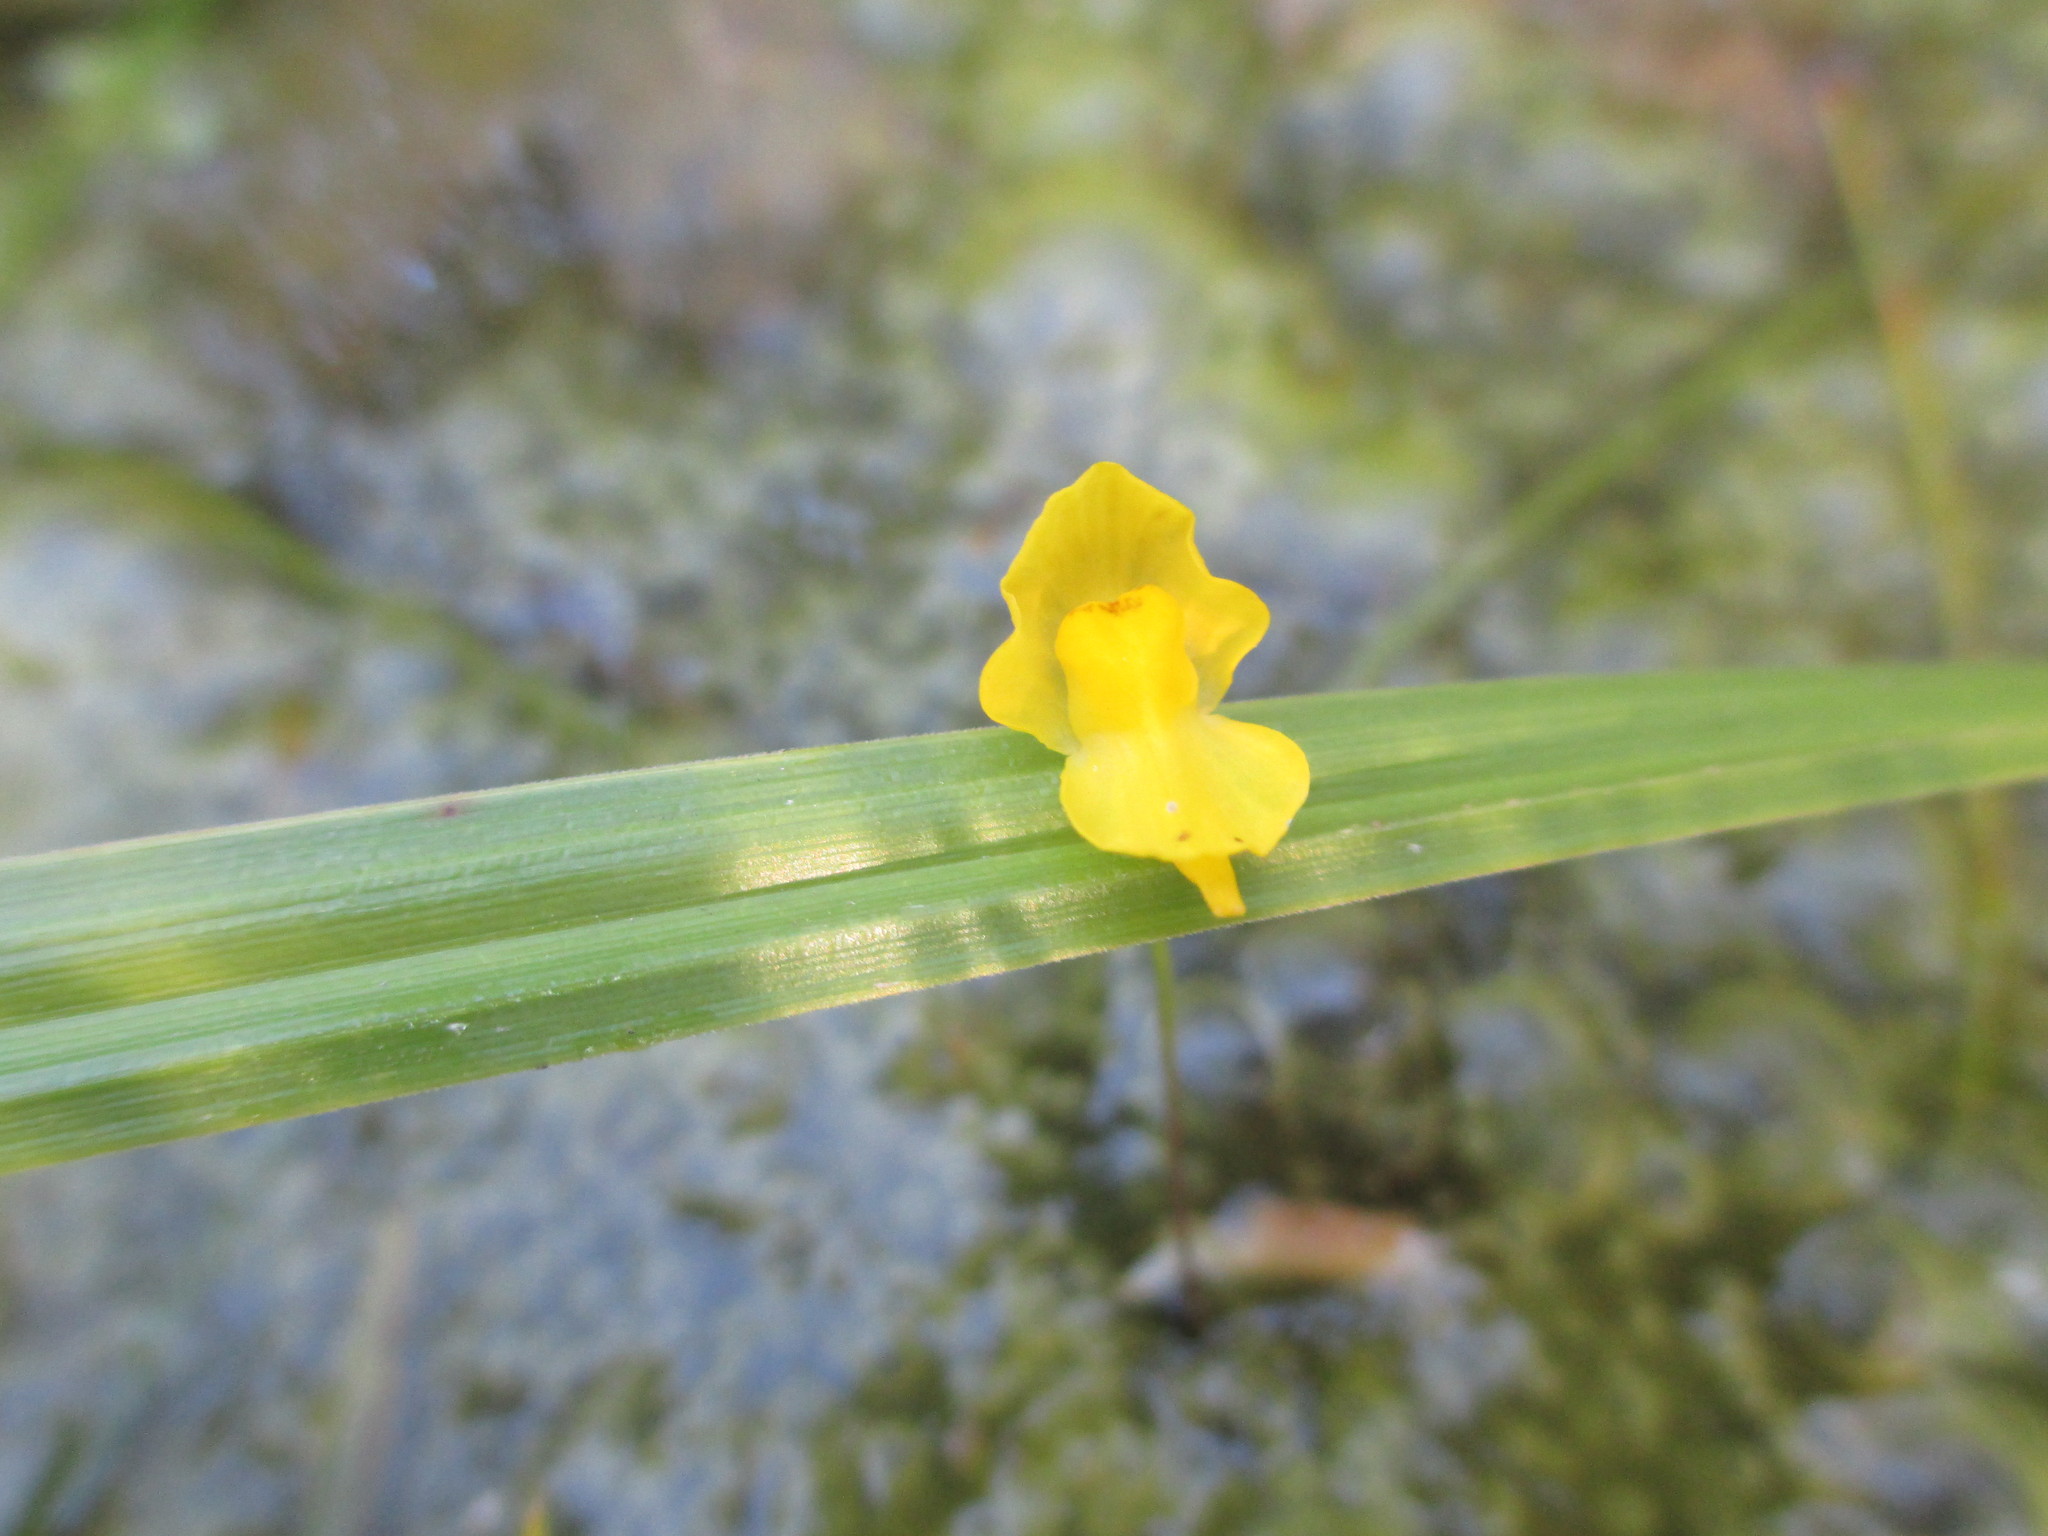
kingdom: Plantae
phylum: Tracheophyta
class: Magnoliopsida
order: Lamiales
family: Lentibulariaceae
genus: Utricularia
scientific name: Utricularia gibba
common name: Humped bladderwort
